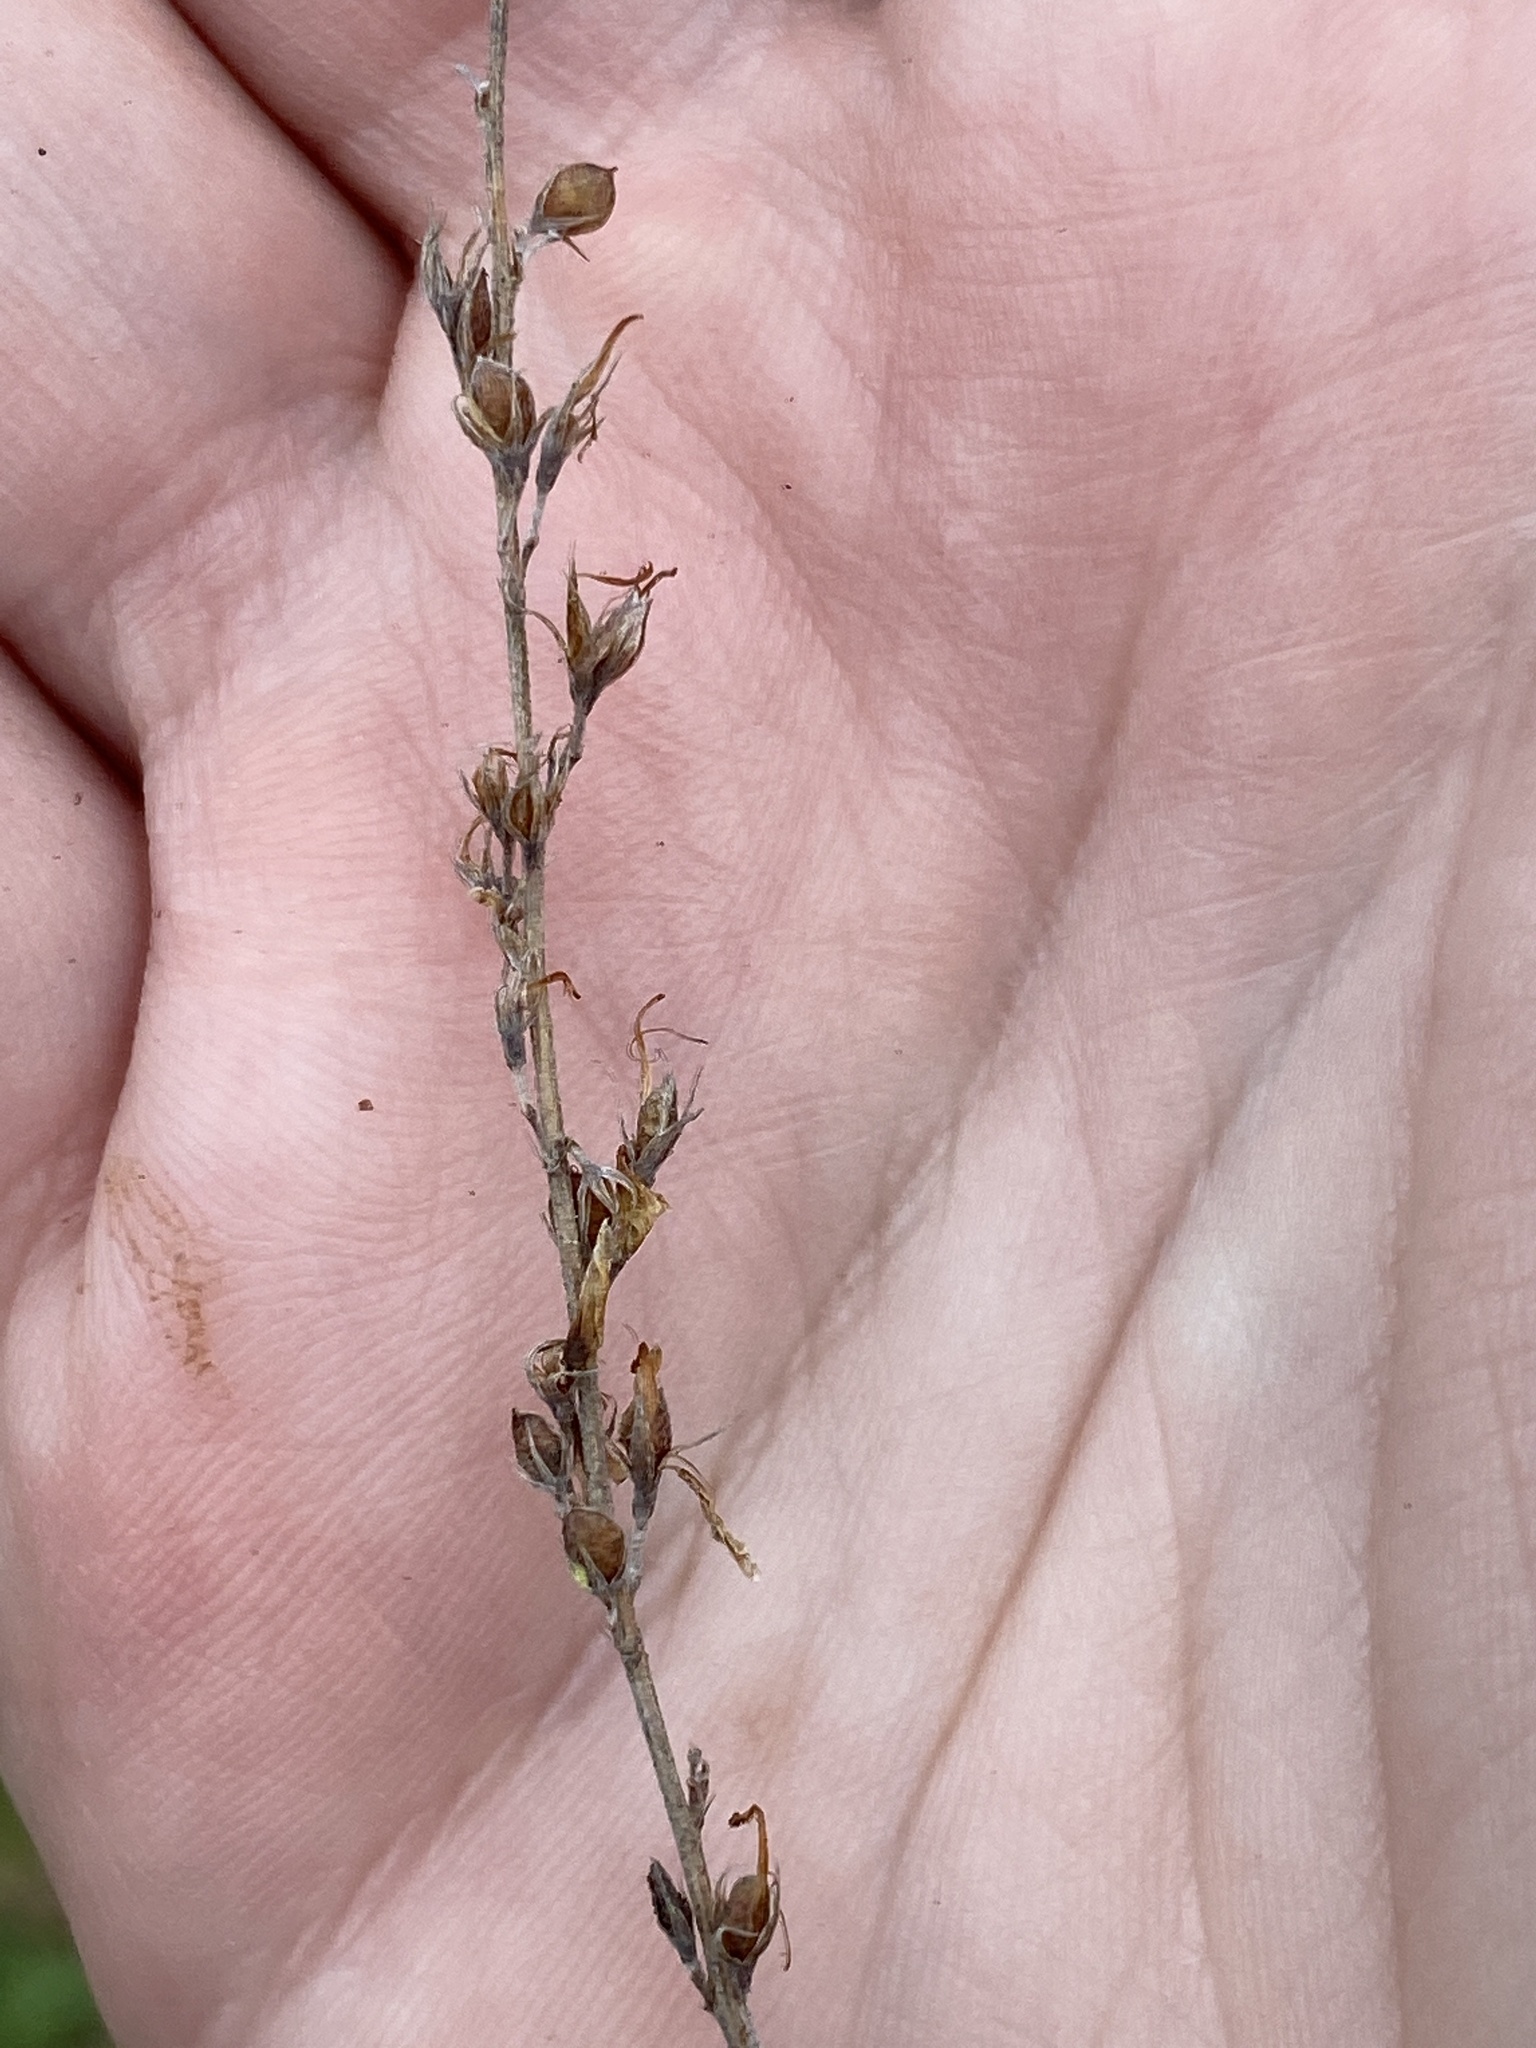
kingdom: Plantae
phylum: Tracheophyta
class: Magnoliopsida
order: Fabales
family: Fabaceae
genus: Lespedeza
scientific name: Lespedeza cuneata
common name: Chinese bush-clover
